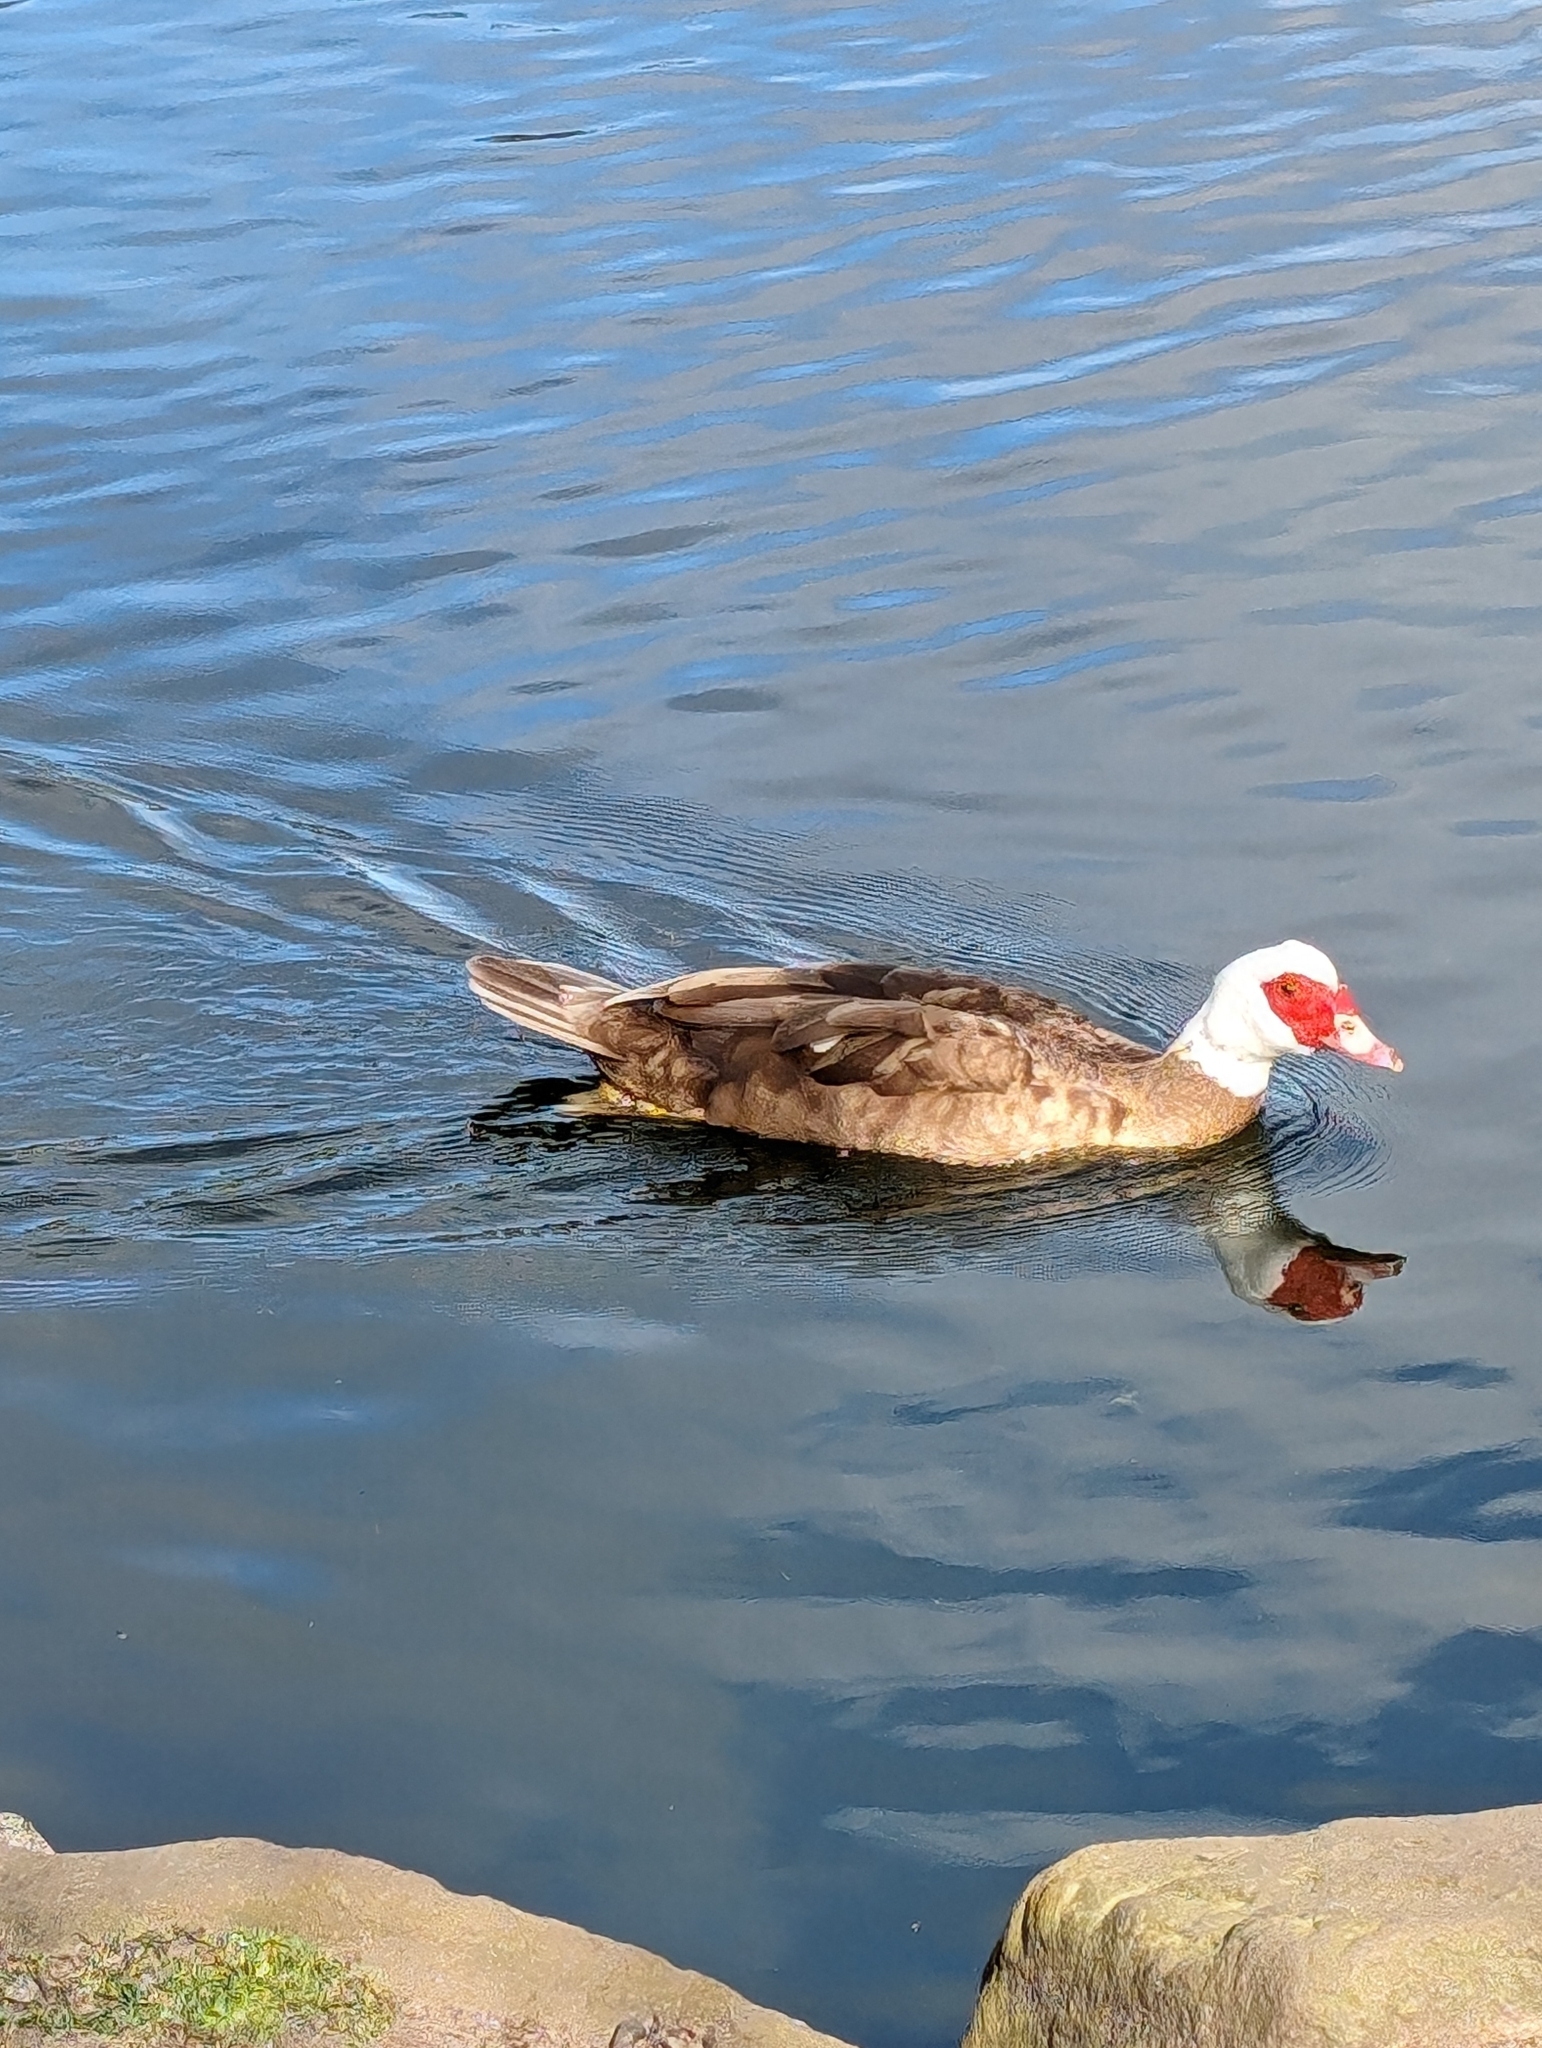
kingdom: Animalia
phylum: Chordata
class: Aves
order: Anseriformes
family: Anatidae
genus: Cairina
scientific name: Cairina moschata
